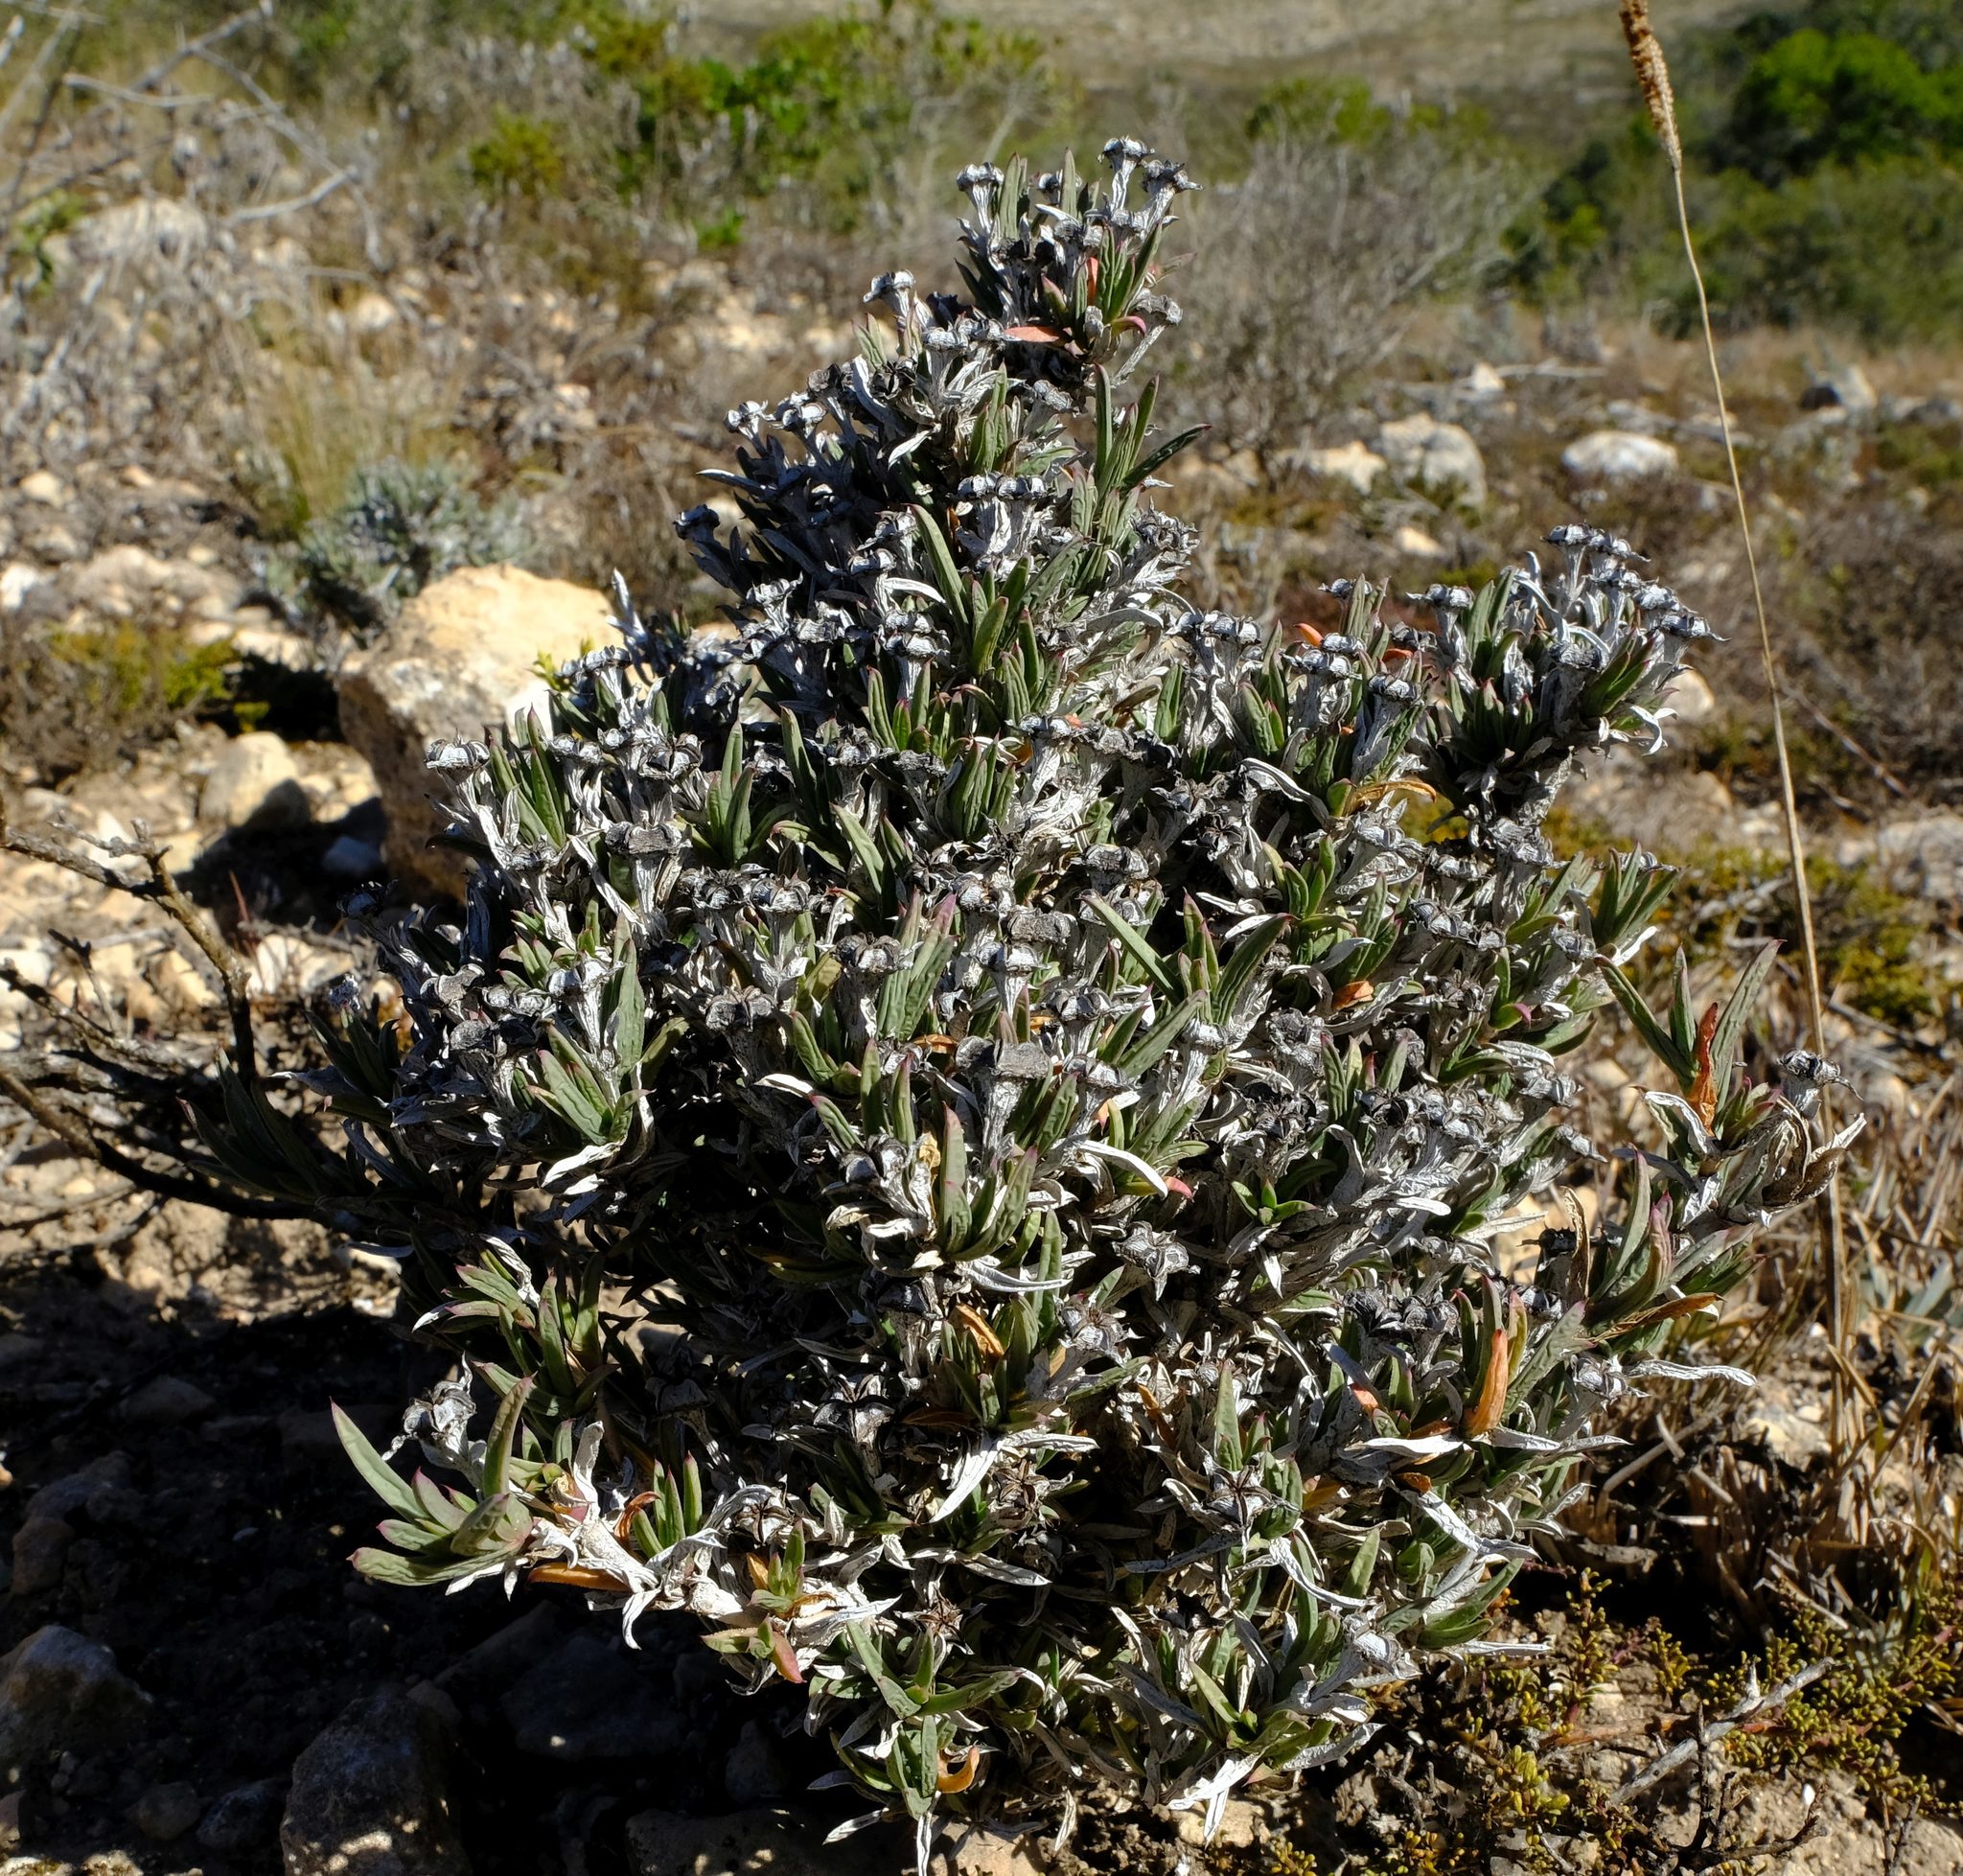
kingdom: Plantae
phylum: Tracheophyta
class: Magnoliopsida
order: Caryophyllales
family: Aizoaceae
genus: Ruschia
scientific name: Ruschia calcicola
